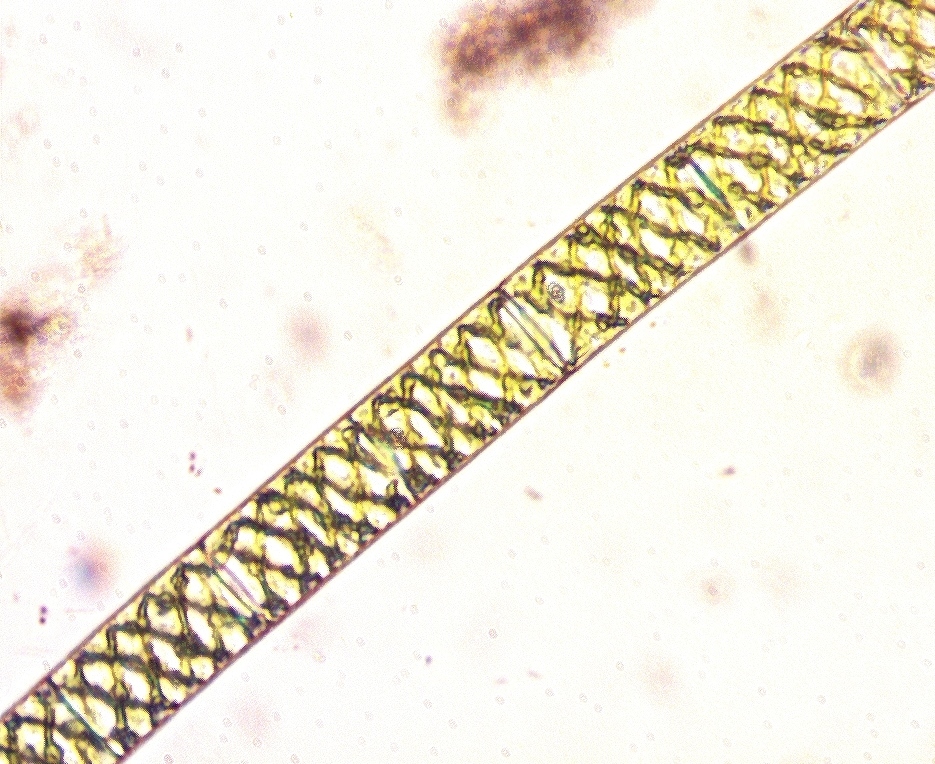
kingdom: Plantae
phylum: Charophyta
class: Zygnematophyceae
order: Zygnematales
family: Zygnemataceae
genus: Spirogyra
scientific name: Spirogyra
